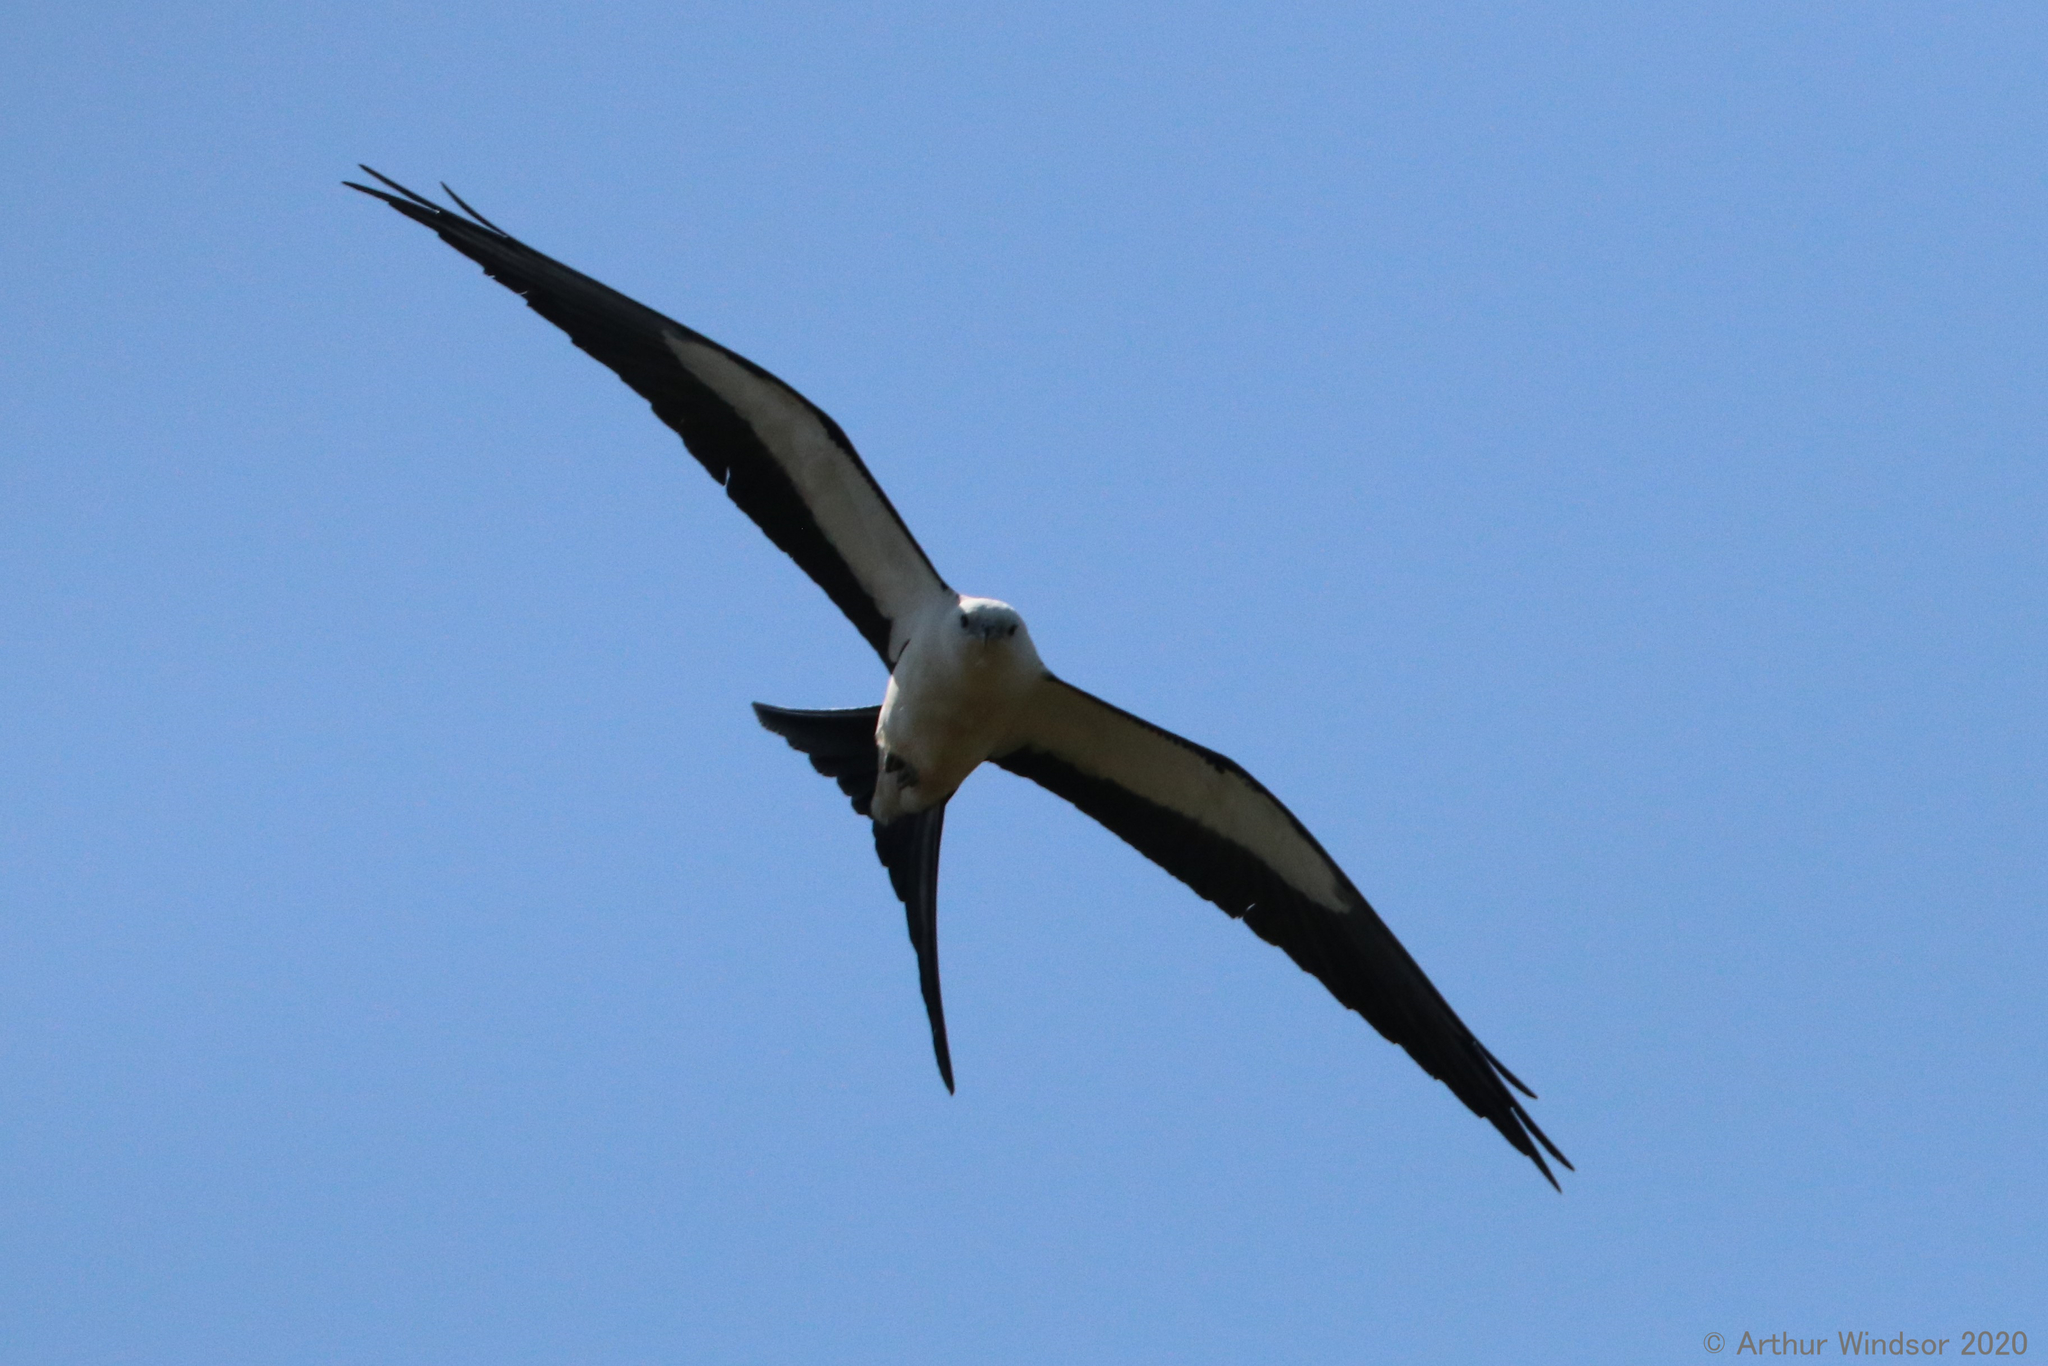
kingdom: Animalia
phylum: Chordata
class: Aves
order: Accipitriformes
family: Accipitridae
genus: Elanoides
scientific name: Elanoides forficatus
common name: Swallow-tailed kite
